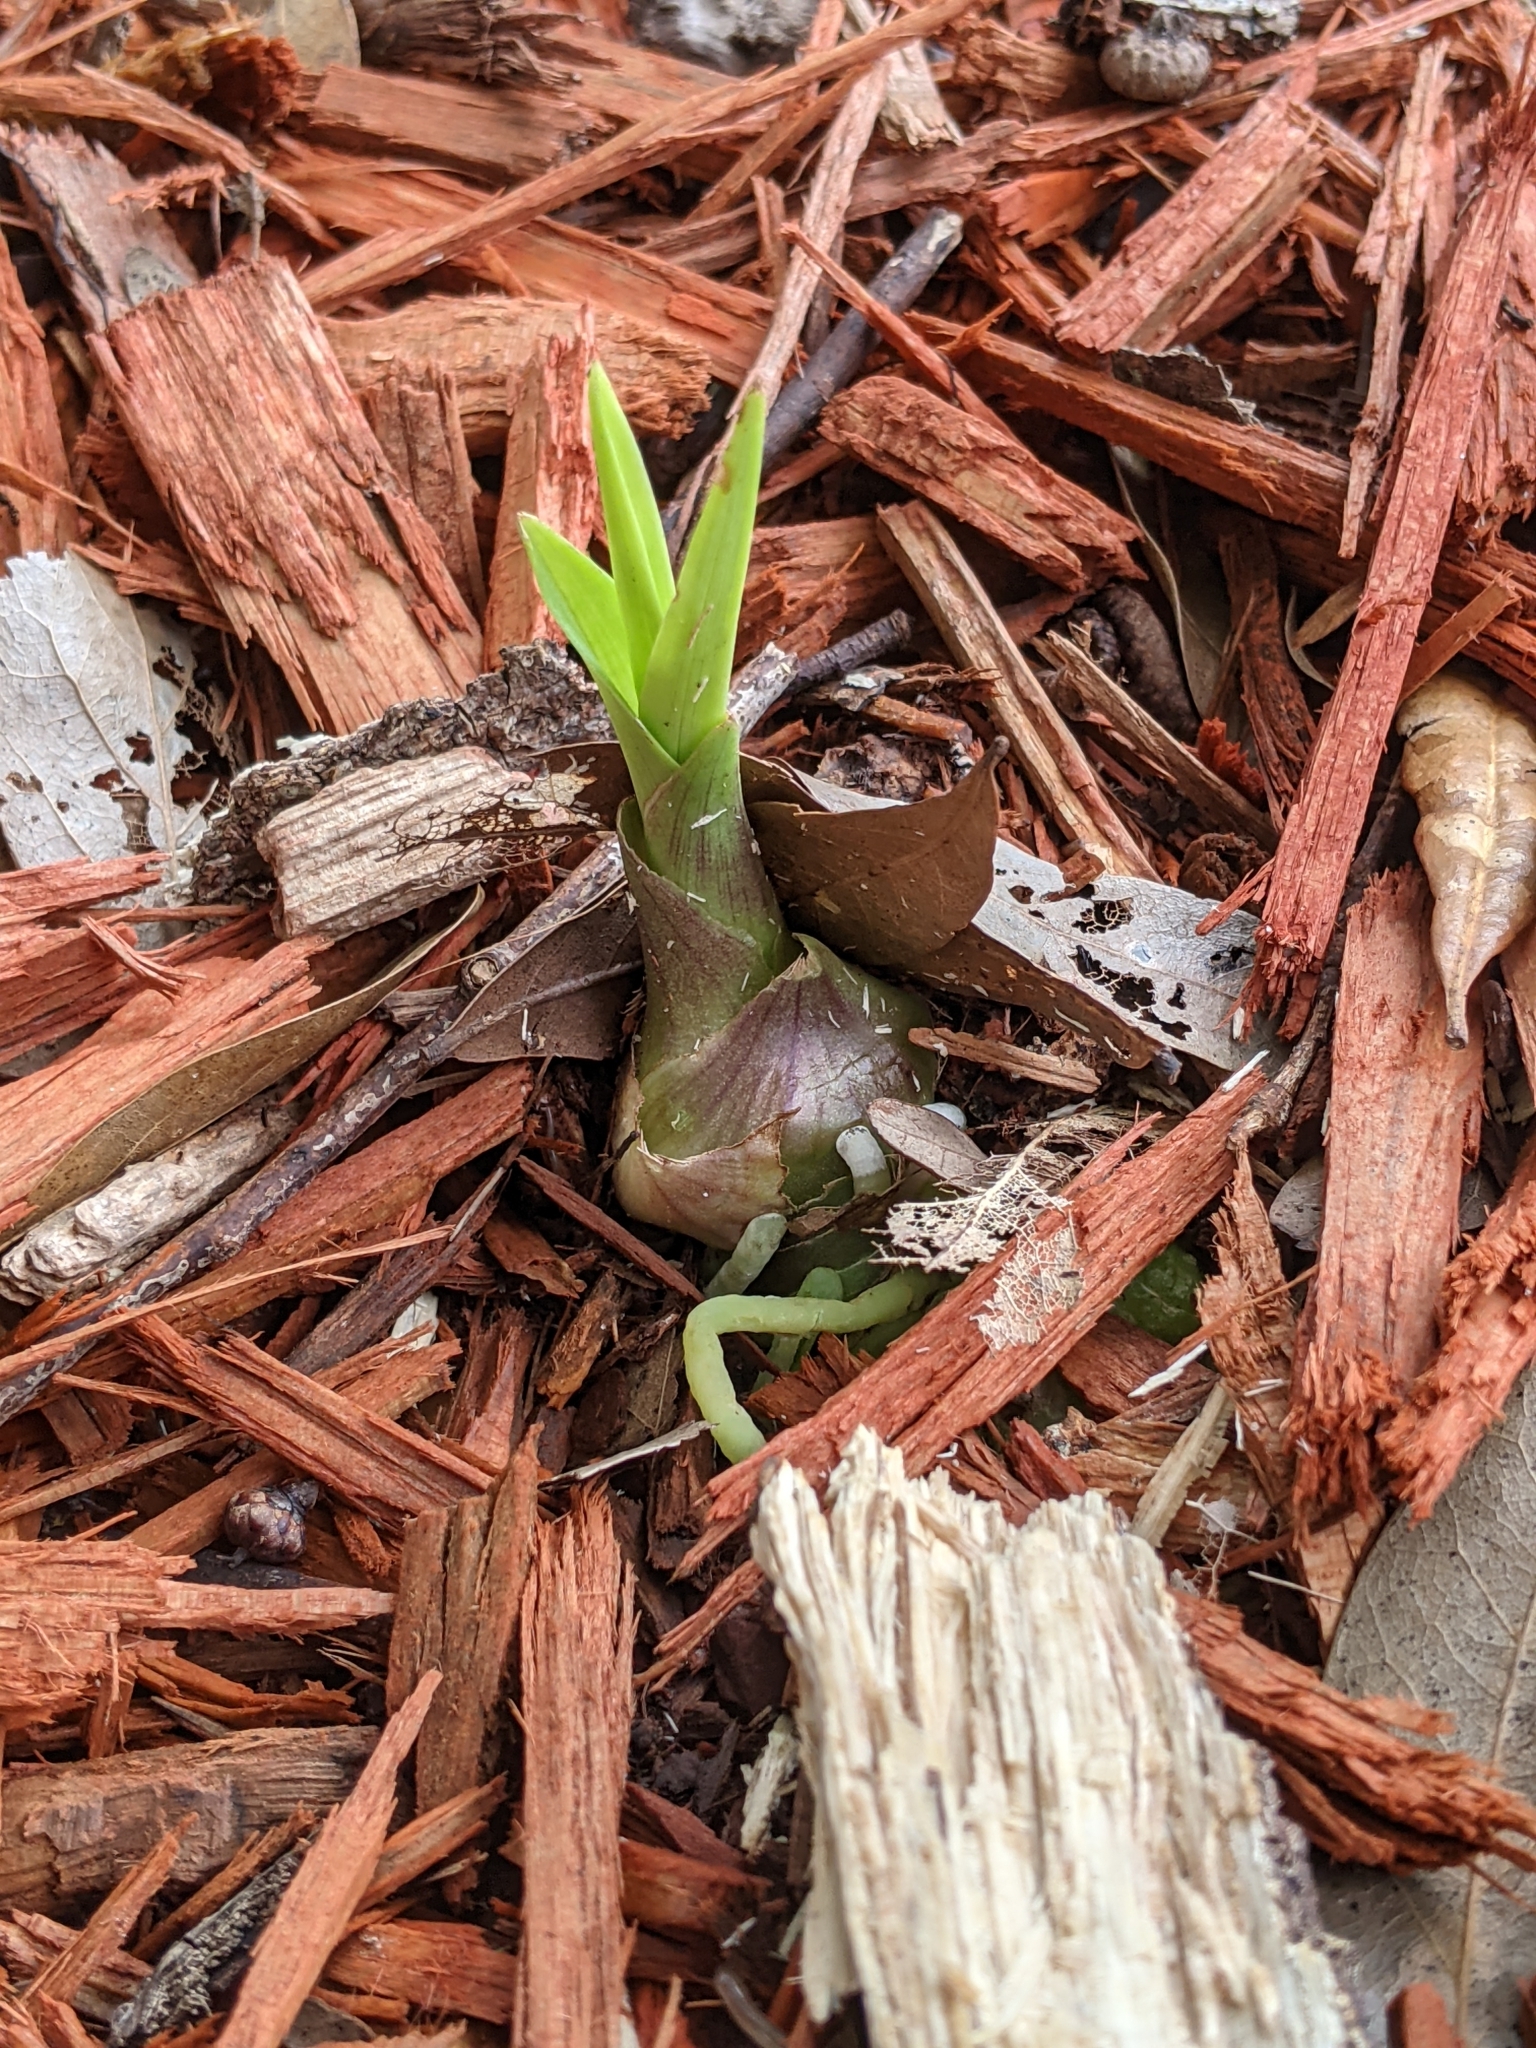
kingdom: Plantae
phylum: Tracheophyta
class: Liliopsida
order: Asparagales
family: Orchidaceae
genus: Eulophia
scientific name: Eulophia graminea
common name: Orchid
